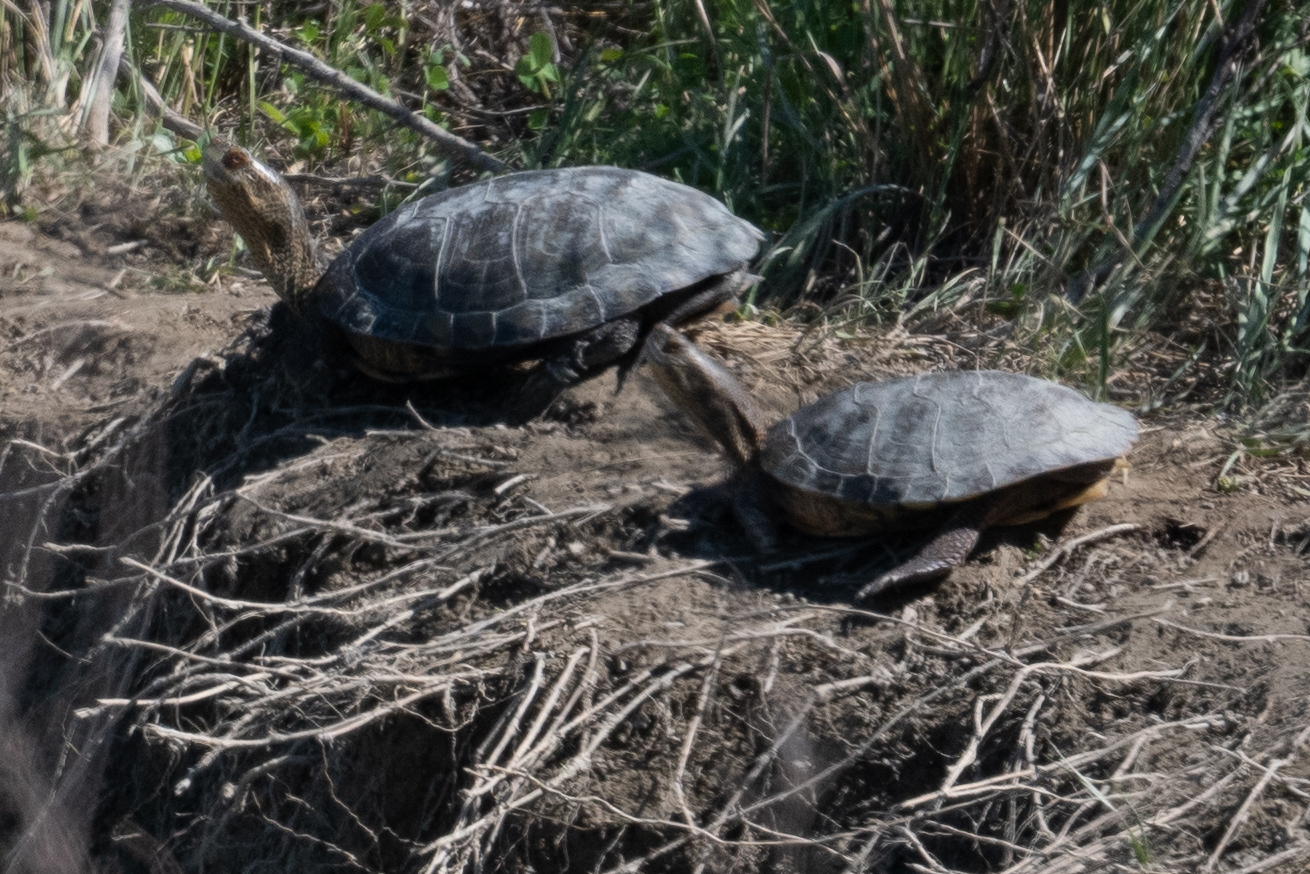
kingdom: Animalia
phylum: Chordata
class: Testudines
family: Emydidae
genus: Actinemys
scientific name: Actinemys marmorata
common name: Western pond turtle
